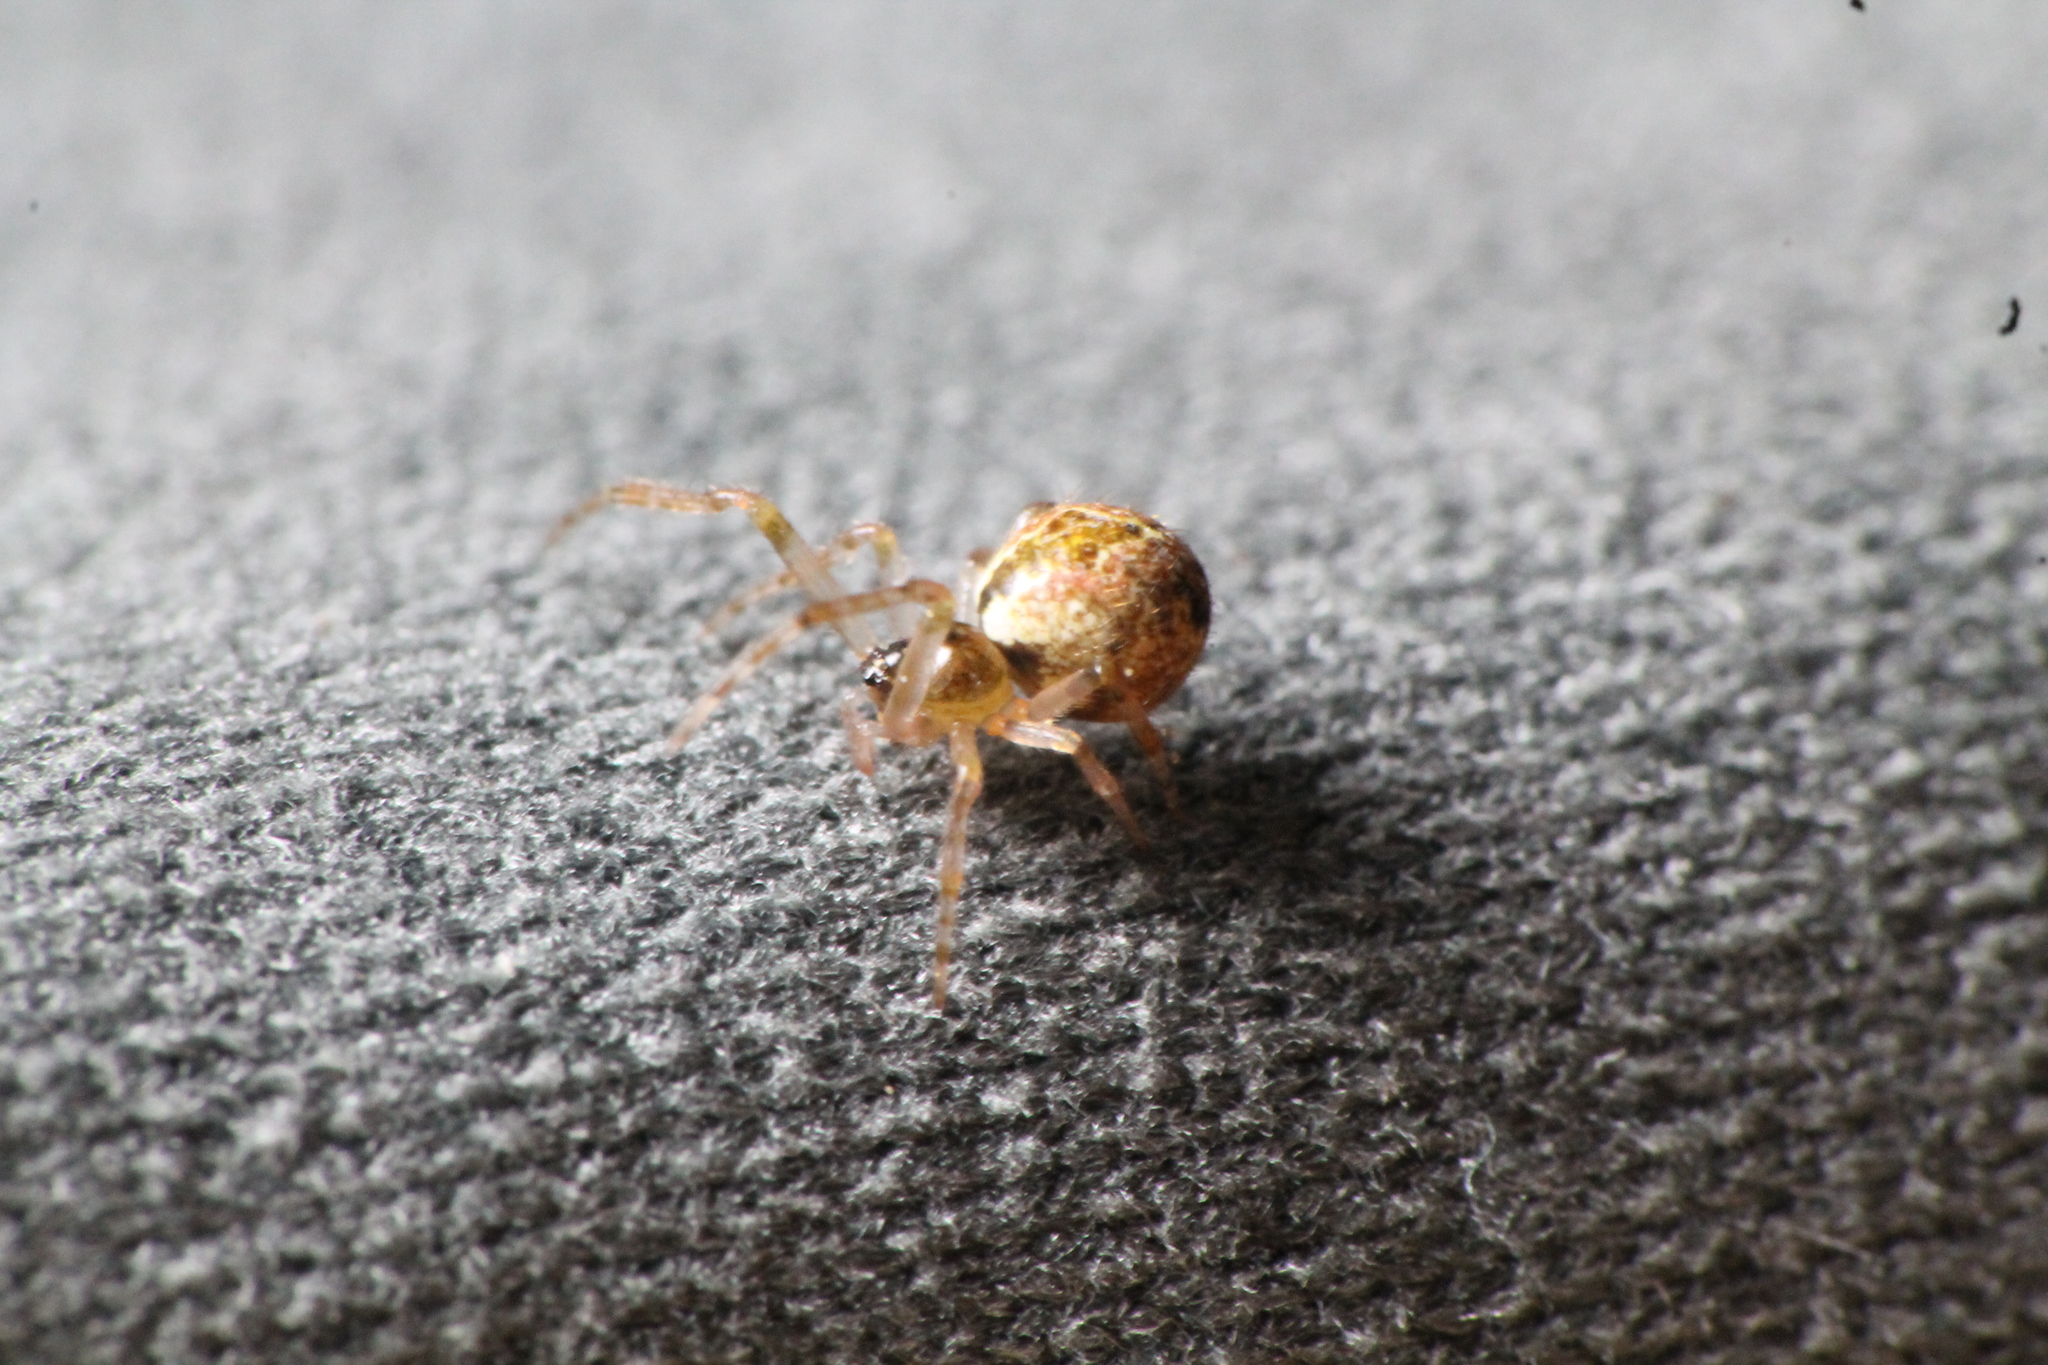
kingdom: Animalia
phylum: Arthropoda
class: Arachnida
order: Araneae
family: Theridiidae
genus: Cryptachaea
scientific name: Cryptachaea veruculata
